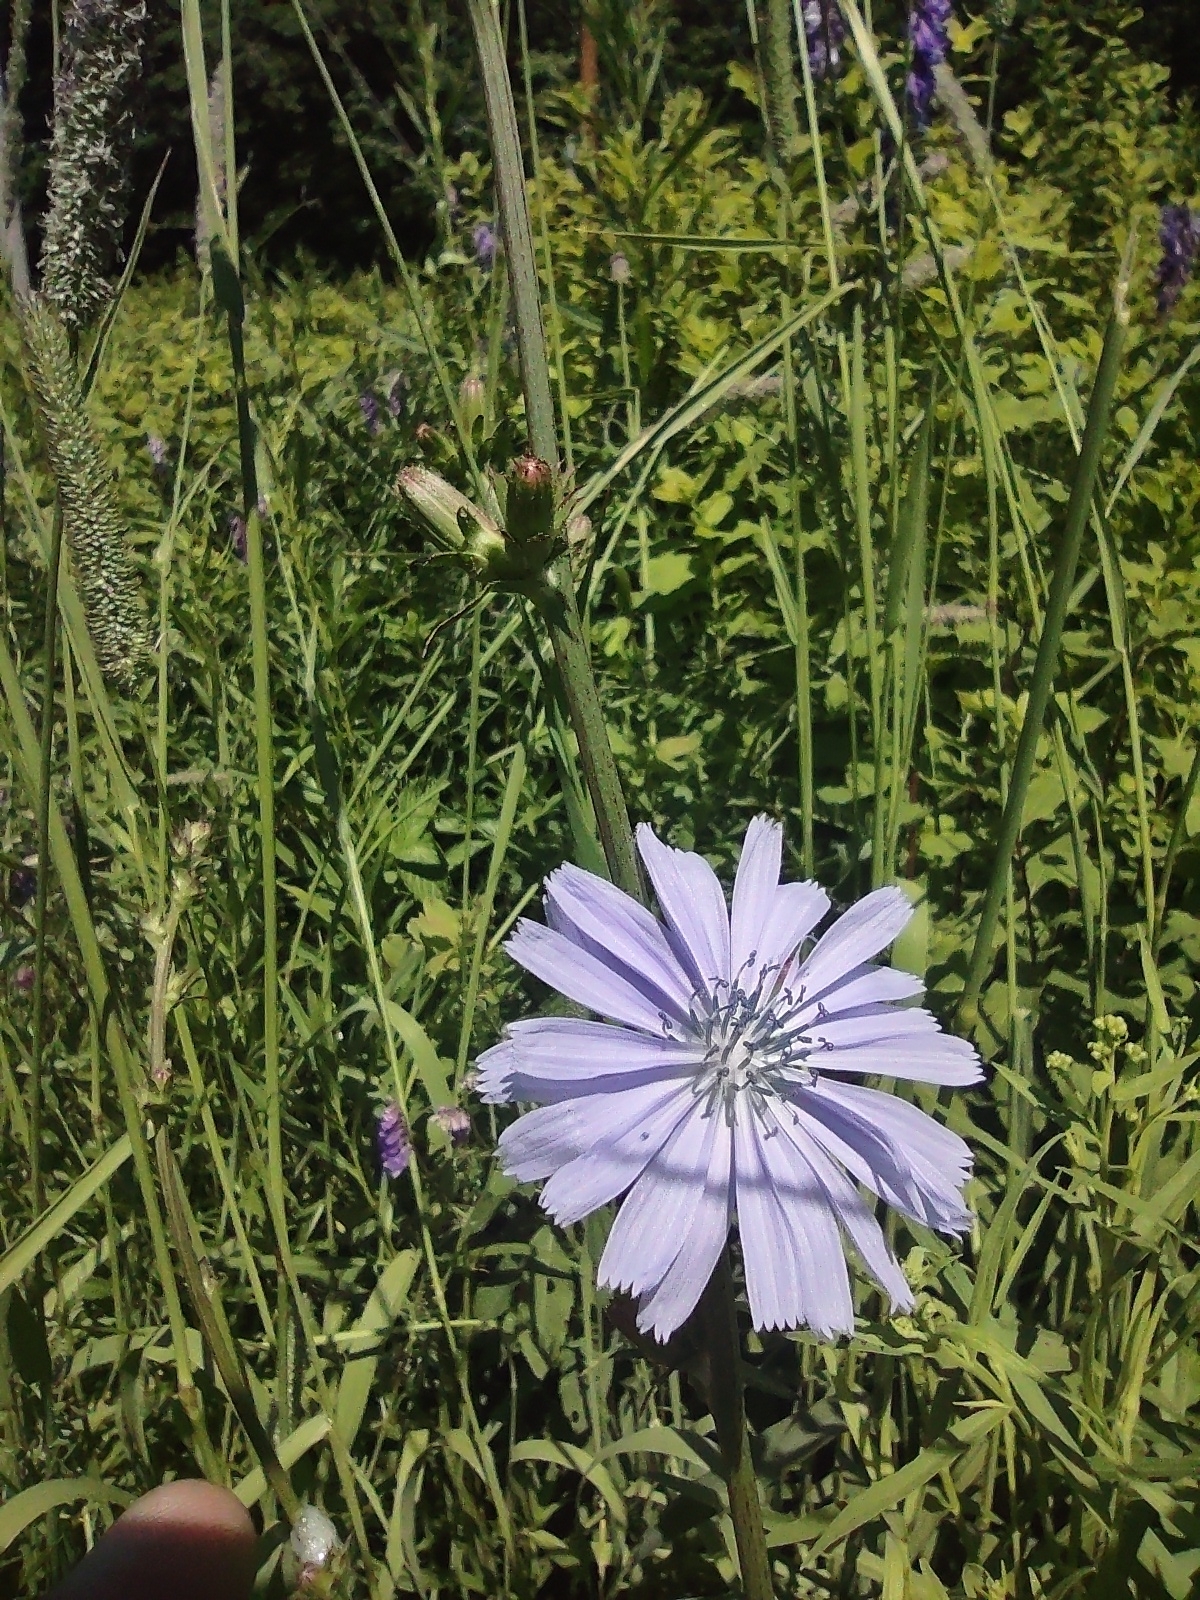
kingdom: Plantae
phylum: Tracheophyta
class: Magnoliopsida
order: Asterales
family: Asteraceae
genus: Cichorium
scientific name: Cichorium intybus
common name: Chicory
